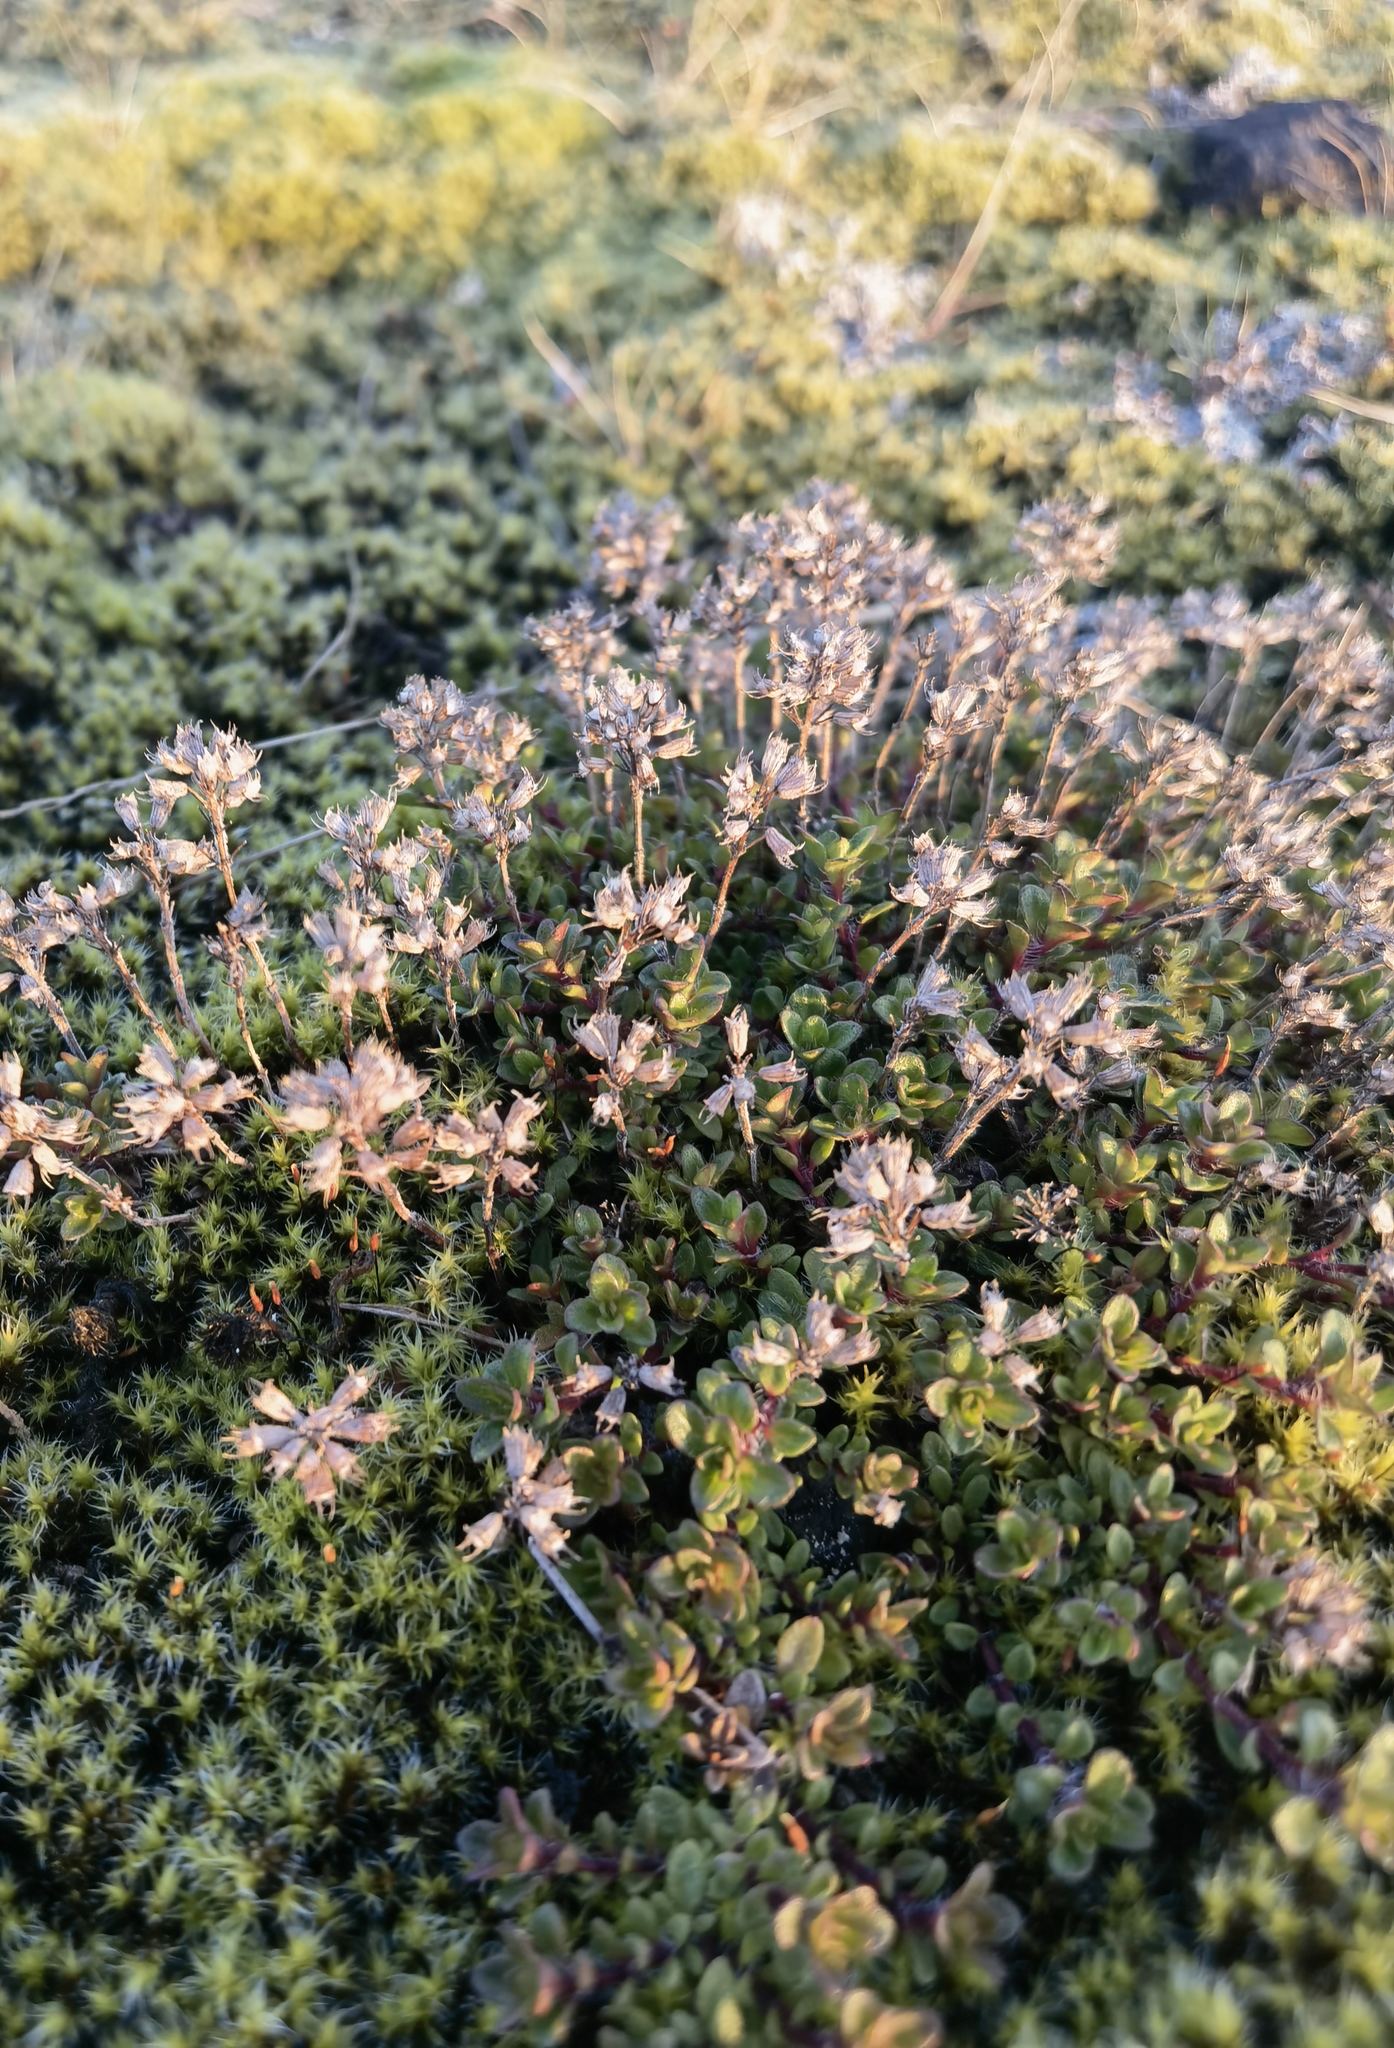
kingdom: Plantae
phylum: Tracheophyta
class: Magnoliopsida
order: Lamiales
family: Lamiaceae
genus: Thymus
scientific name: Thymus praecox
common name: Wild thyme
